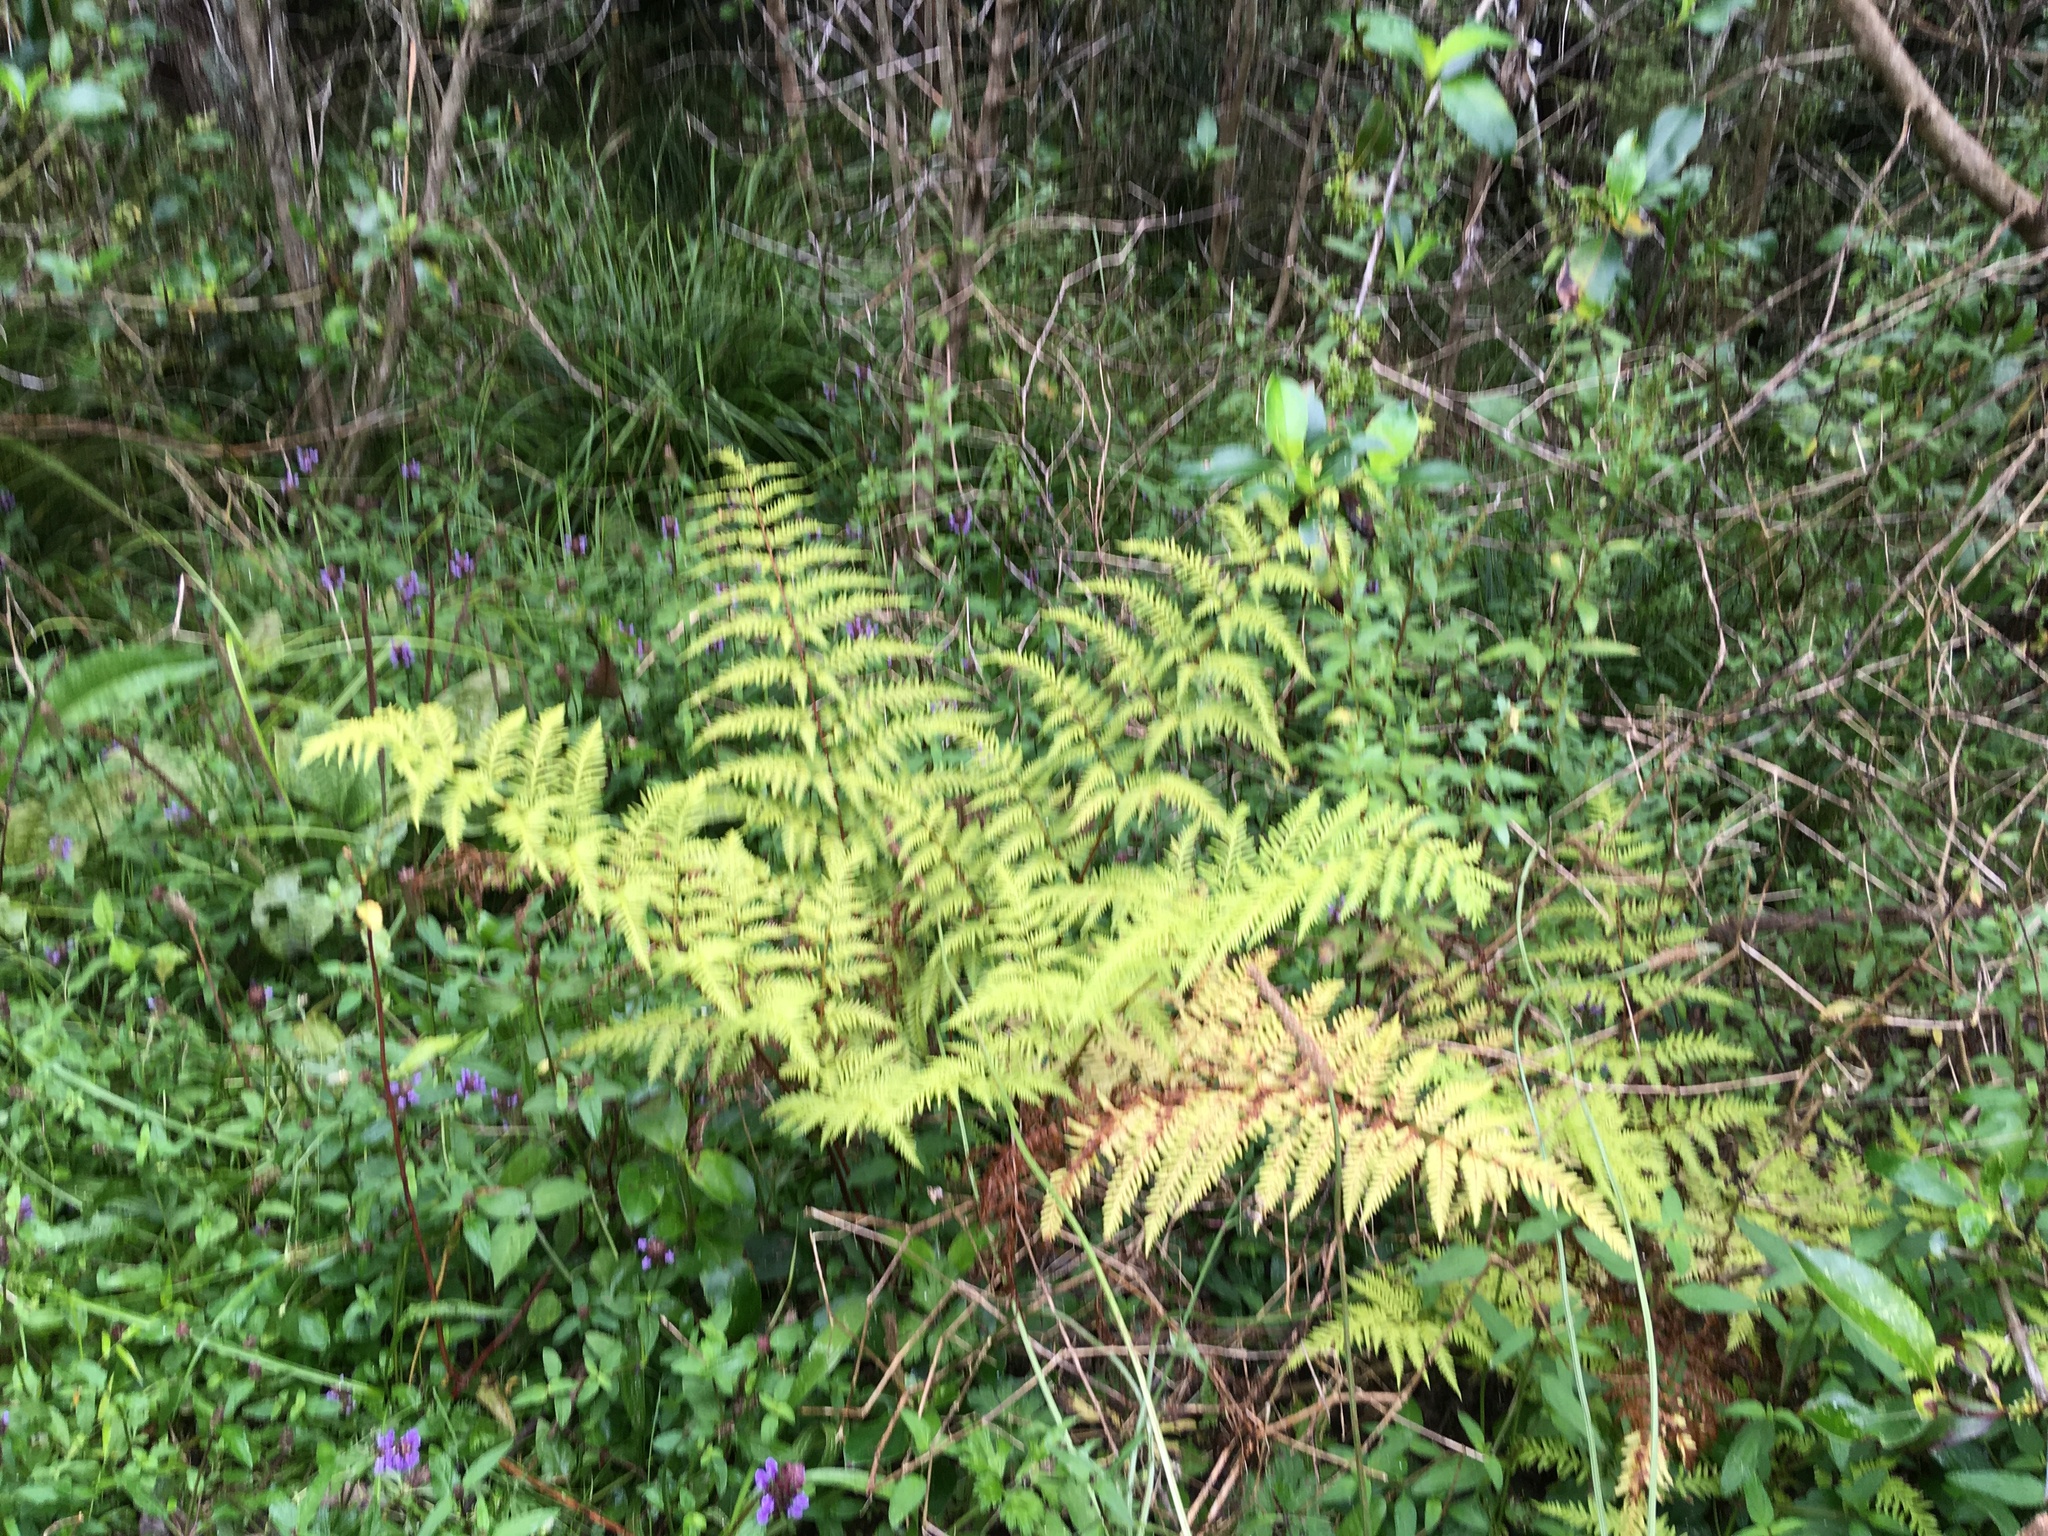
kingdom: Plantae
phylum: Tracheophyta
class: Polypodiopsida
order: Polypodiales
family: Pteridaceae
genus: Pteris
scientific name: Pteris tremula
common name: Australian brake
